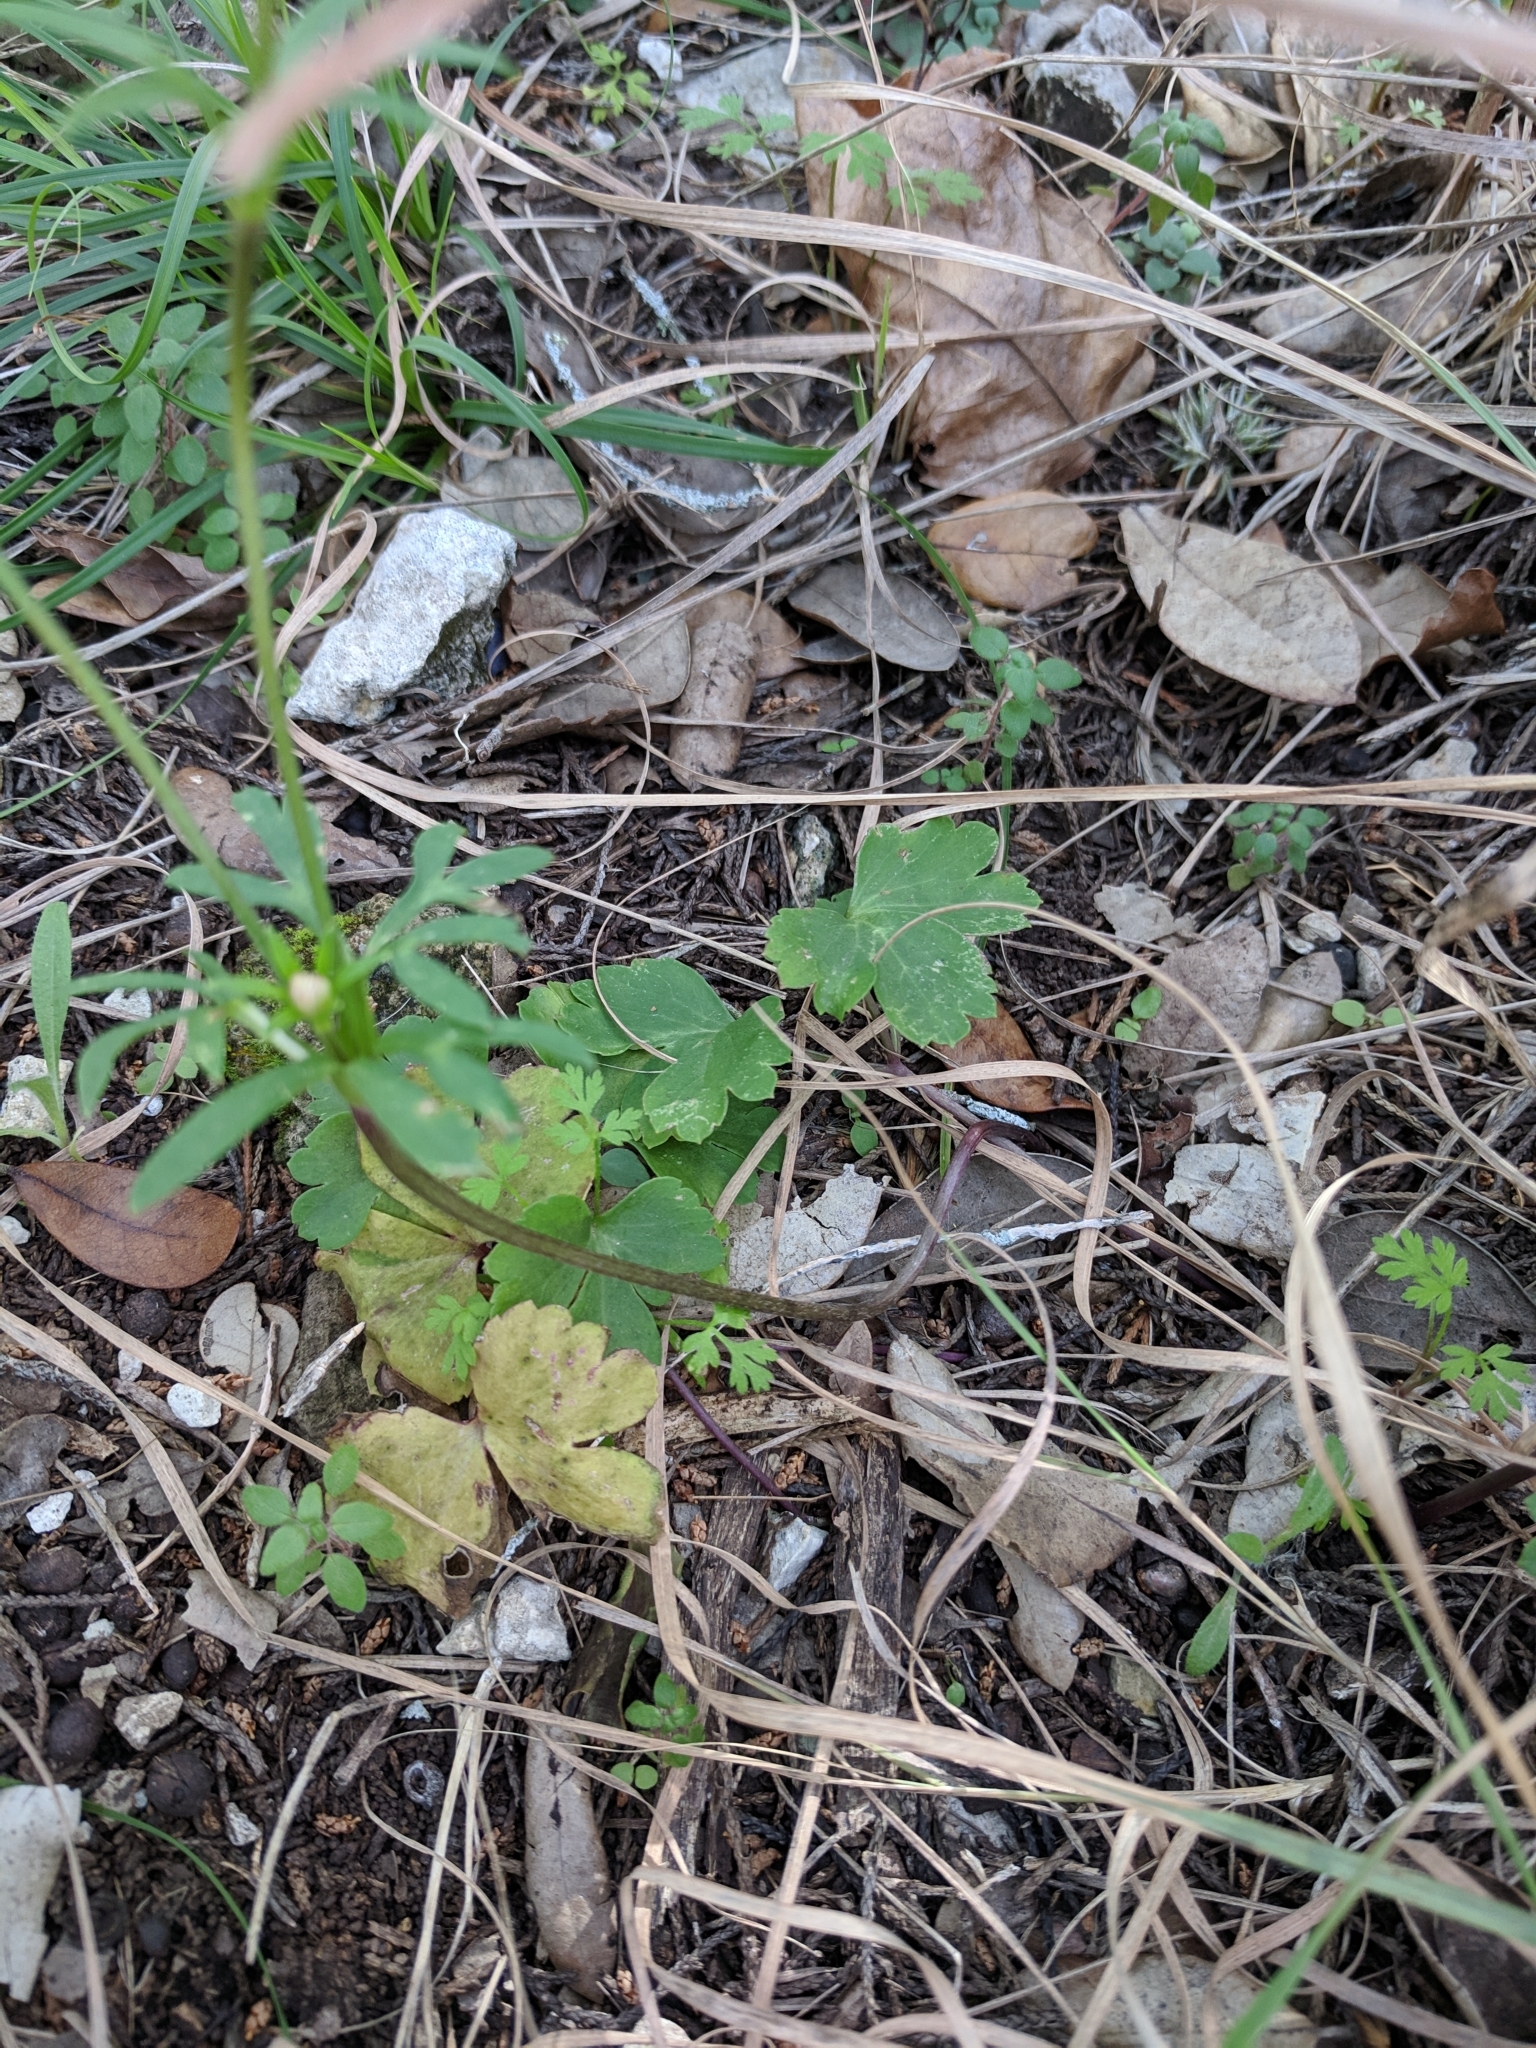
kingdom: Plantae
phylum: Tracheophyta
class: Magnoliopsida
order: Ranunculales
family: Ranunculaceae
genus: Anemone
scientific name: Anemone edwardsiana
